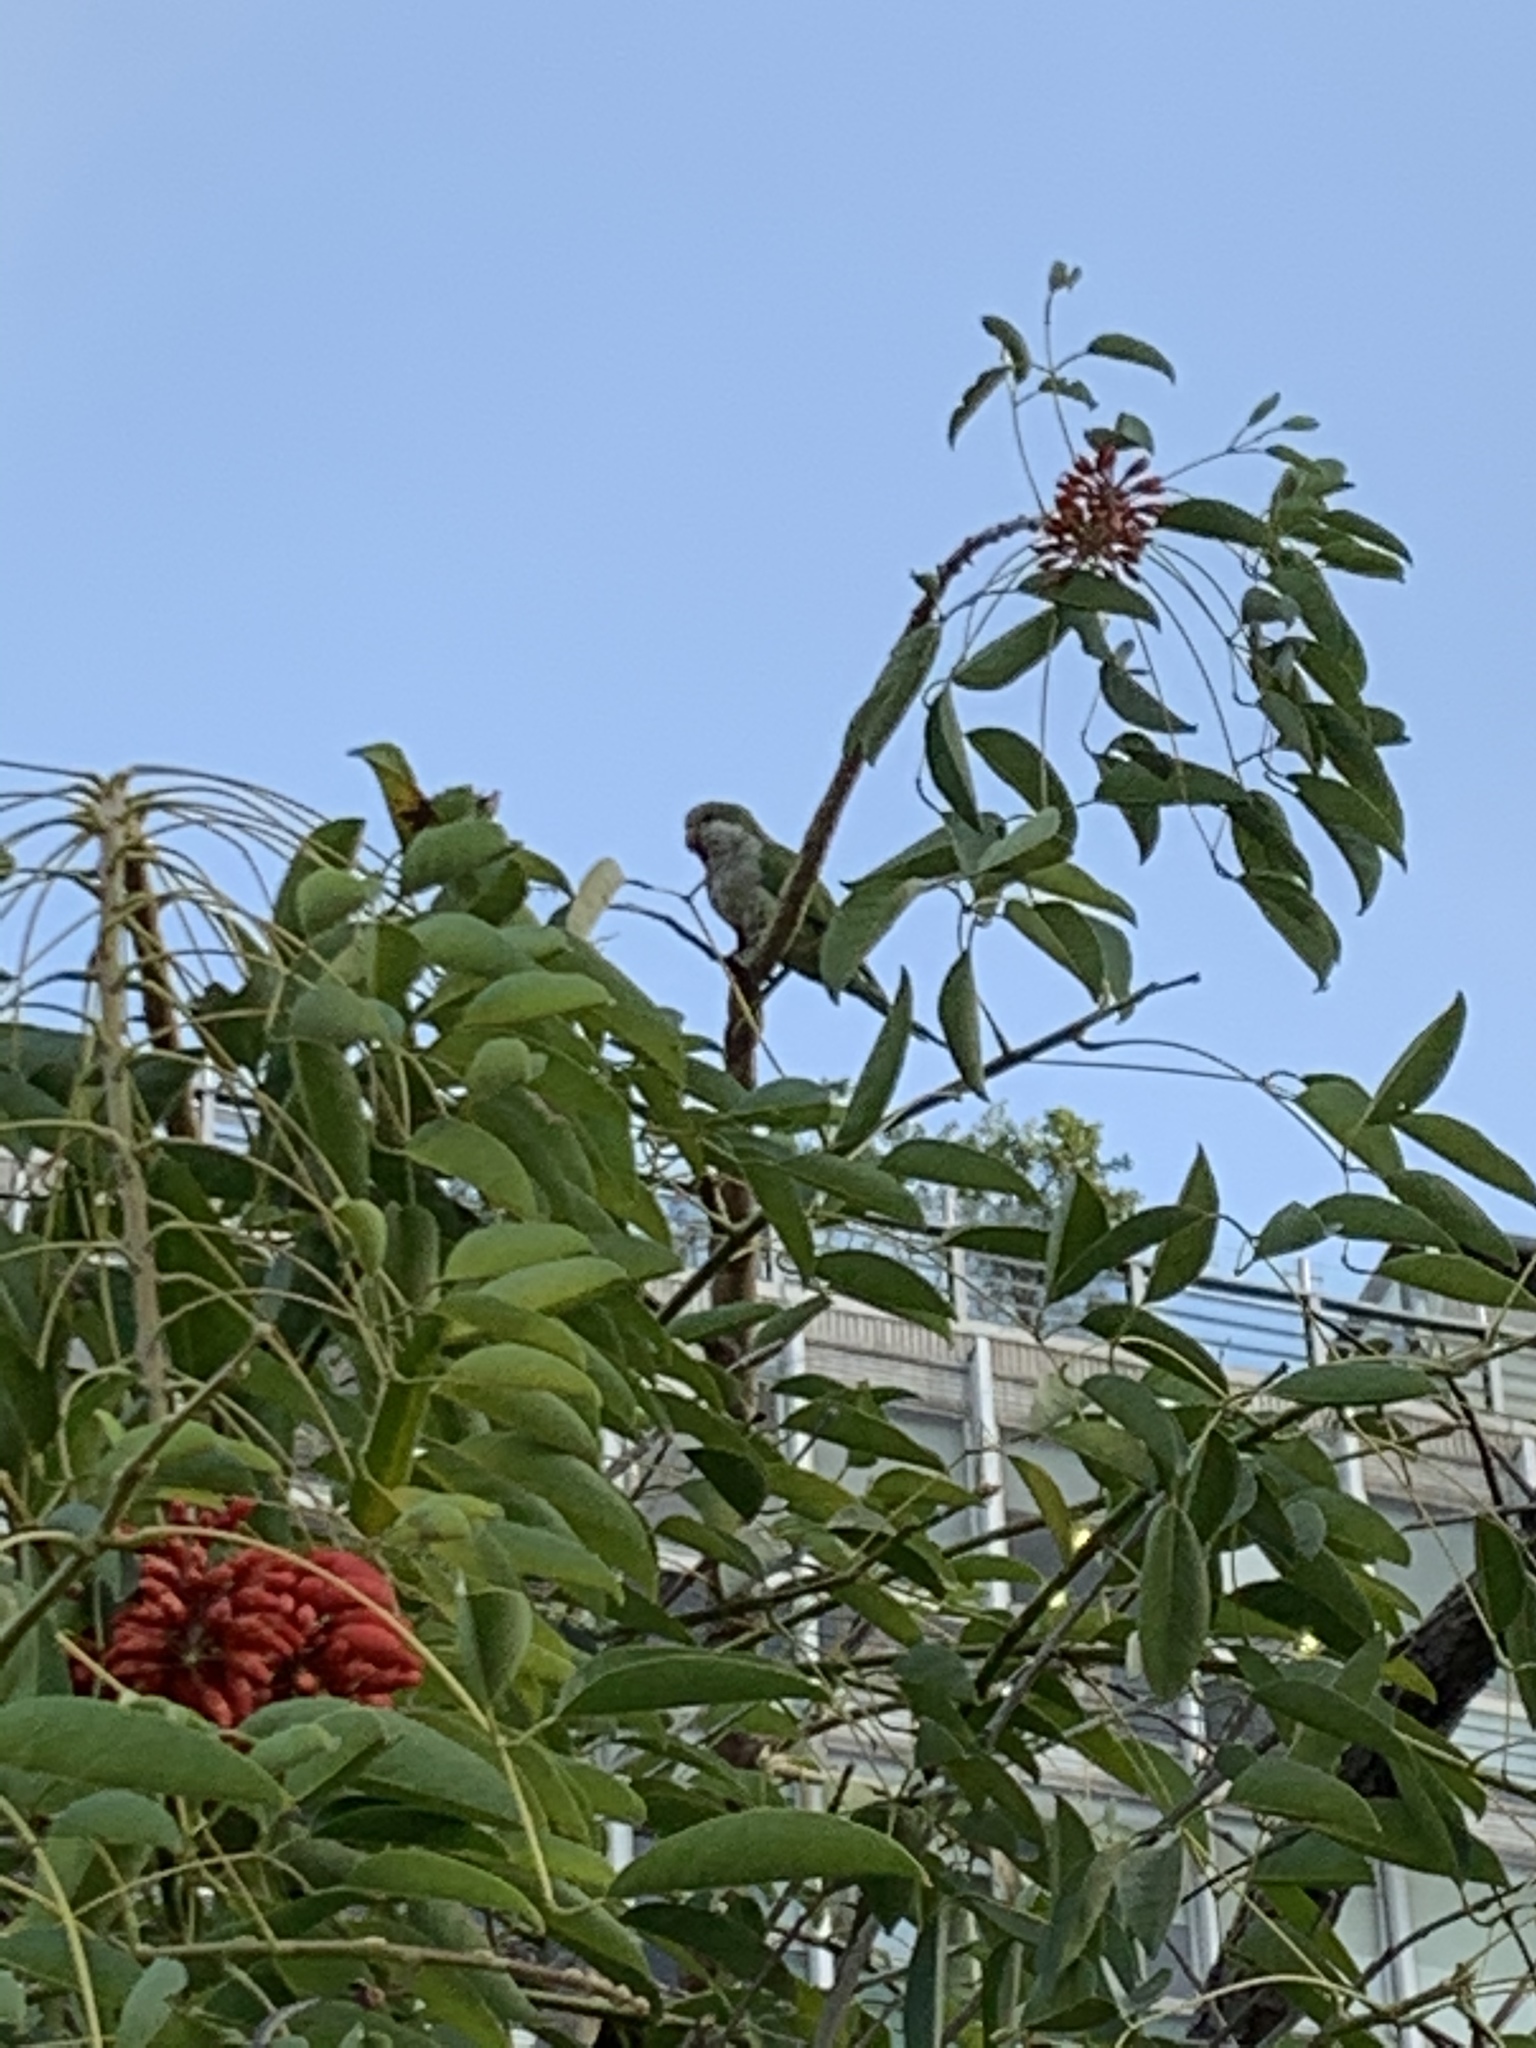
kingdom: Animalia
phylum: Chordata
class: Aves
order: Psittaciformes
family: Psittacidae
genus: Myiopsitta
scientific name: Myiopsitta monachus
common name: Monk parakeet
